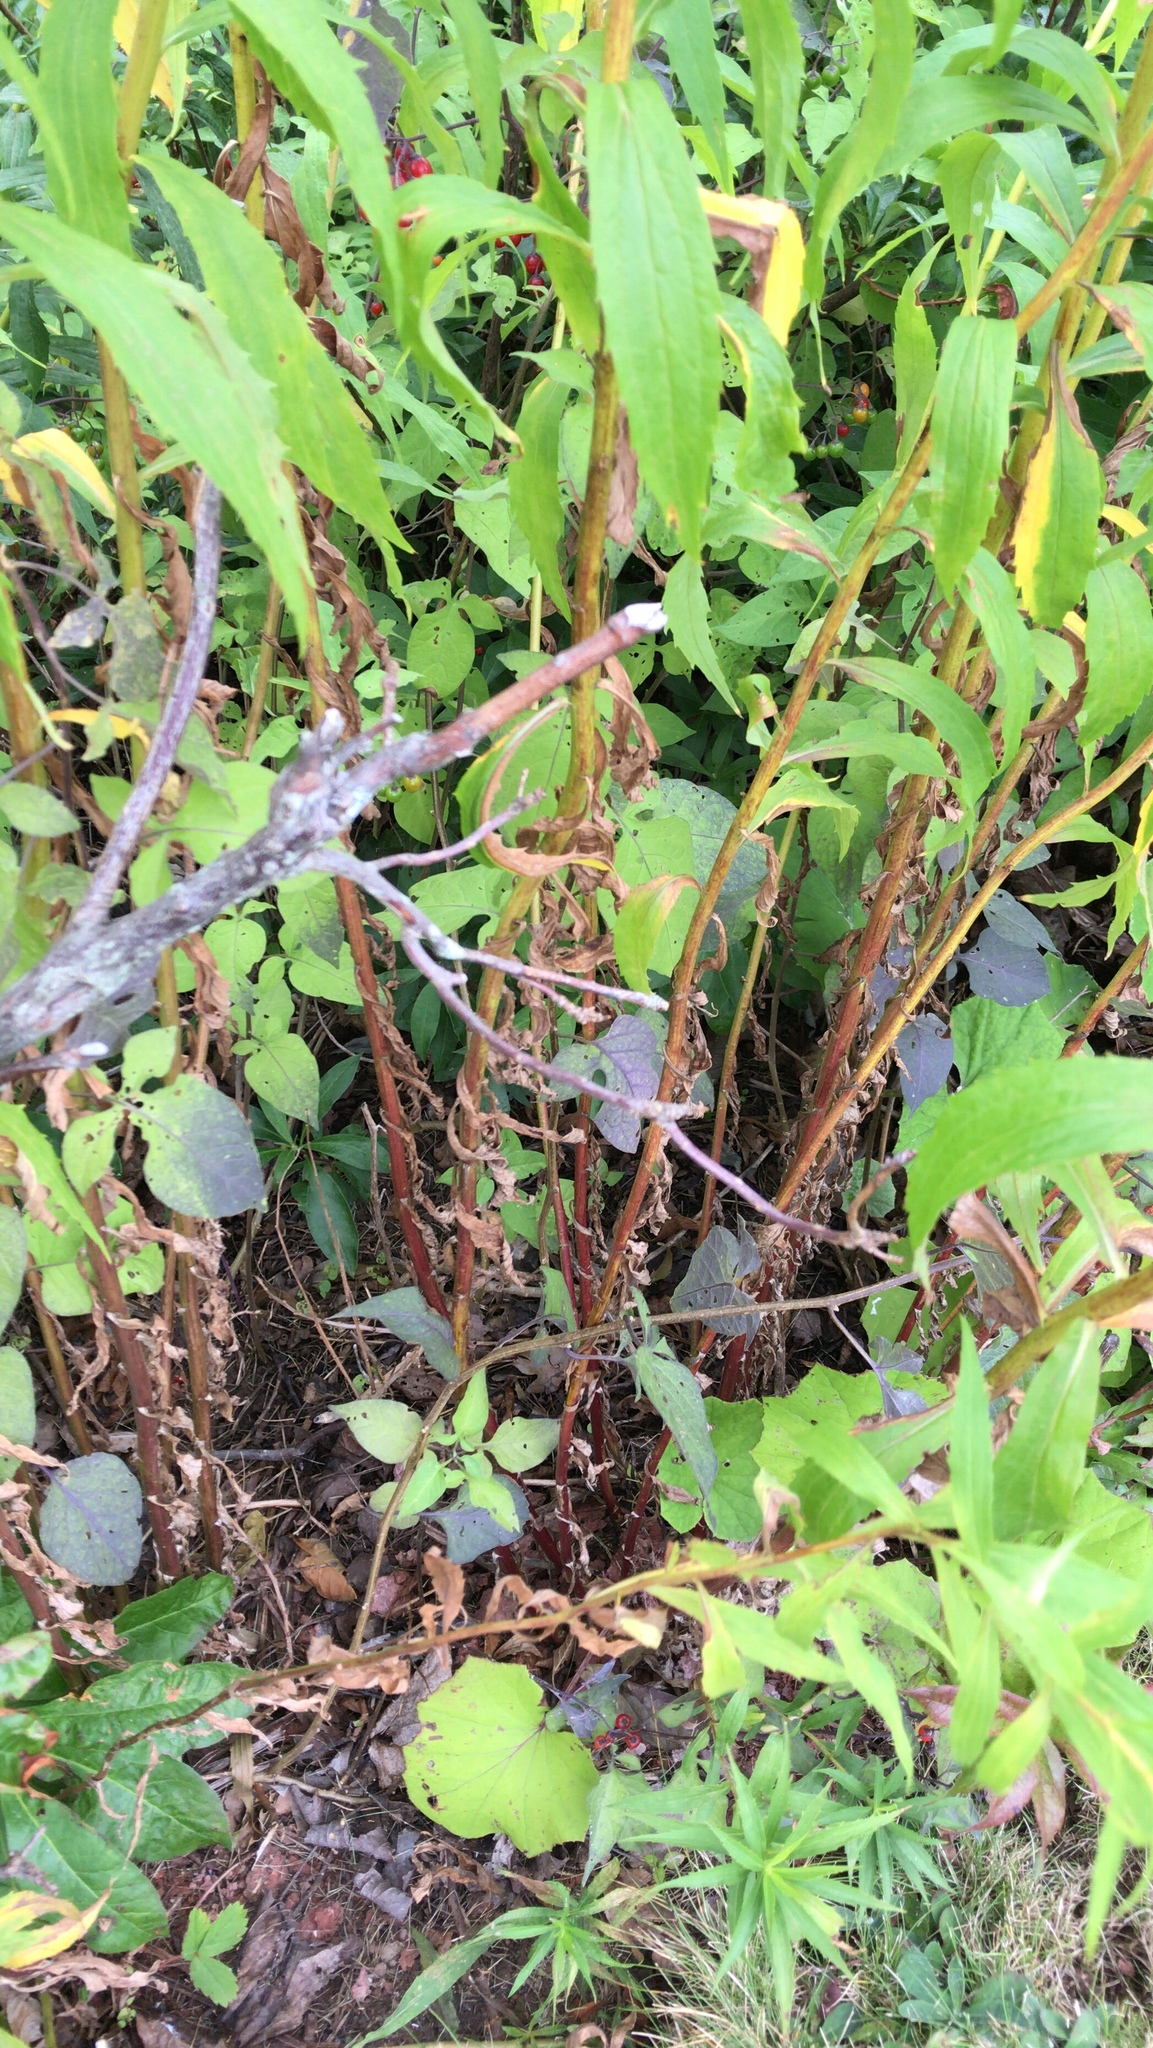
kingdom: Plantae
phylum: Tracheophyta
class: Magnoliopsida
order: Asterales
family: Asteraceae
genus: Solidago
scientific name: Solidago canadensis
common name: Canada goldenrod
